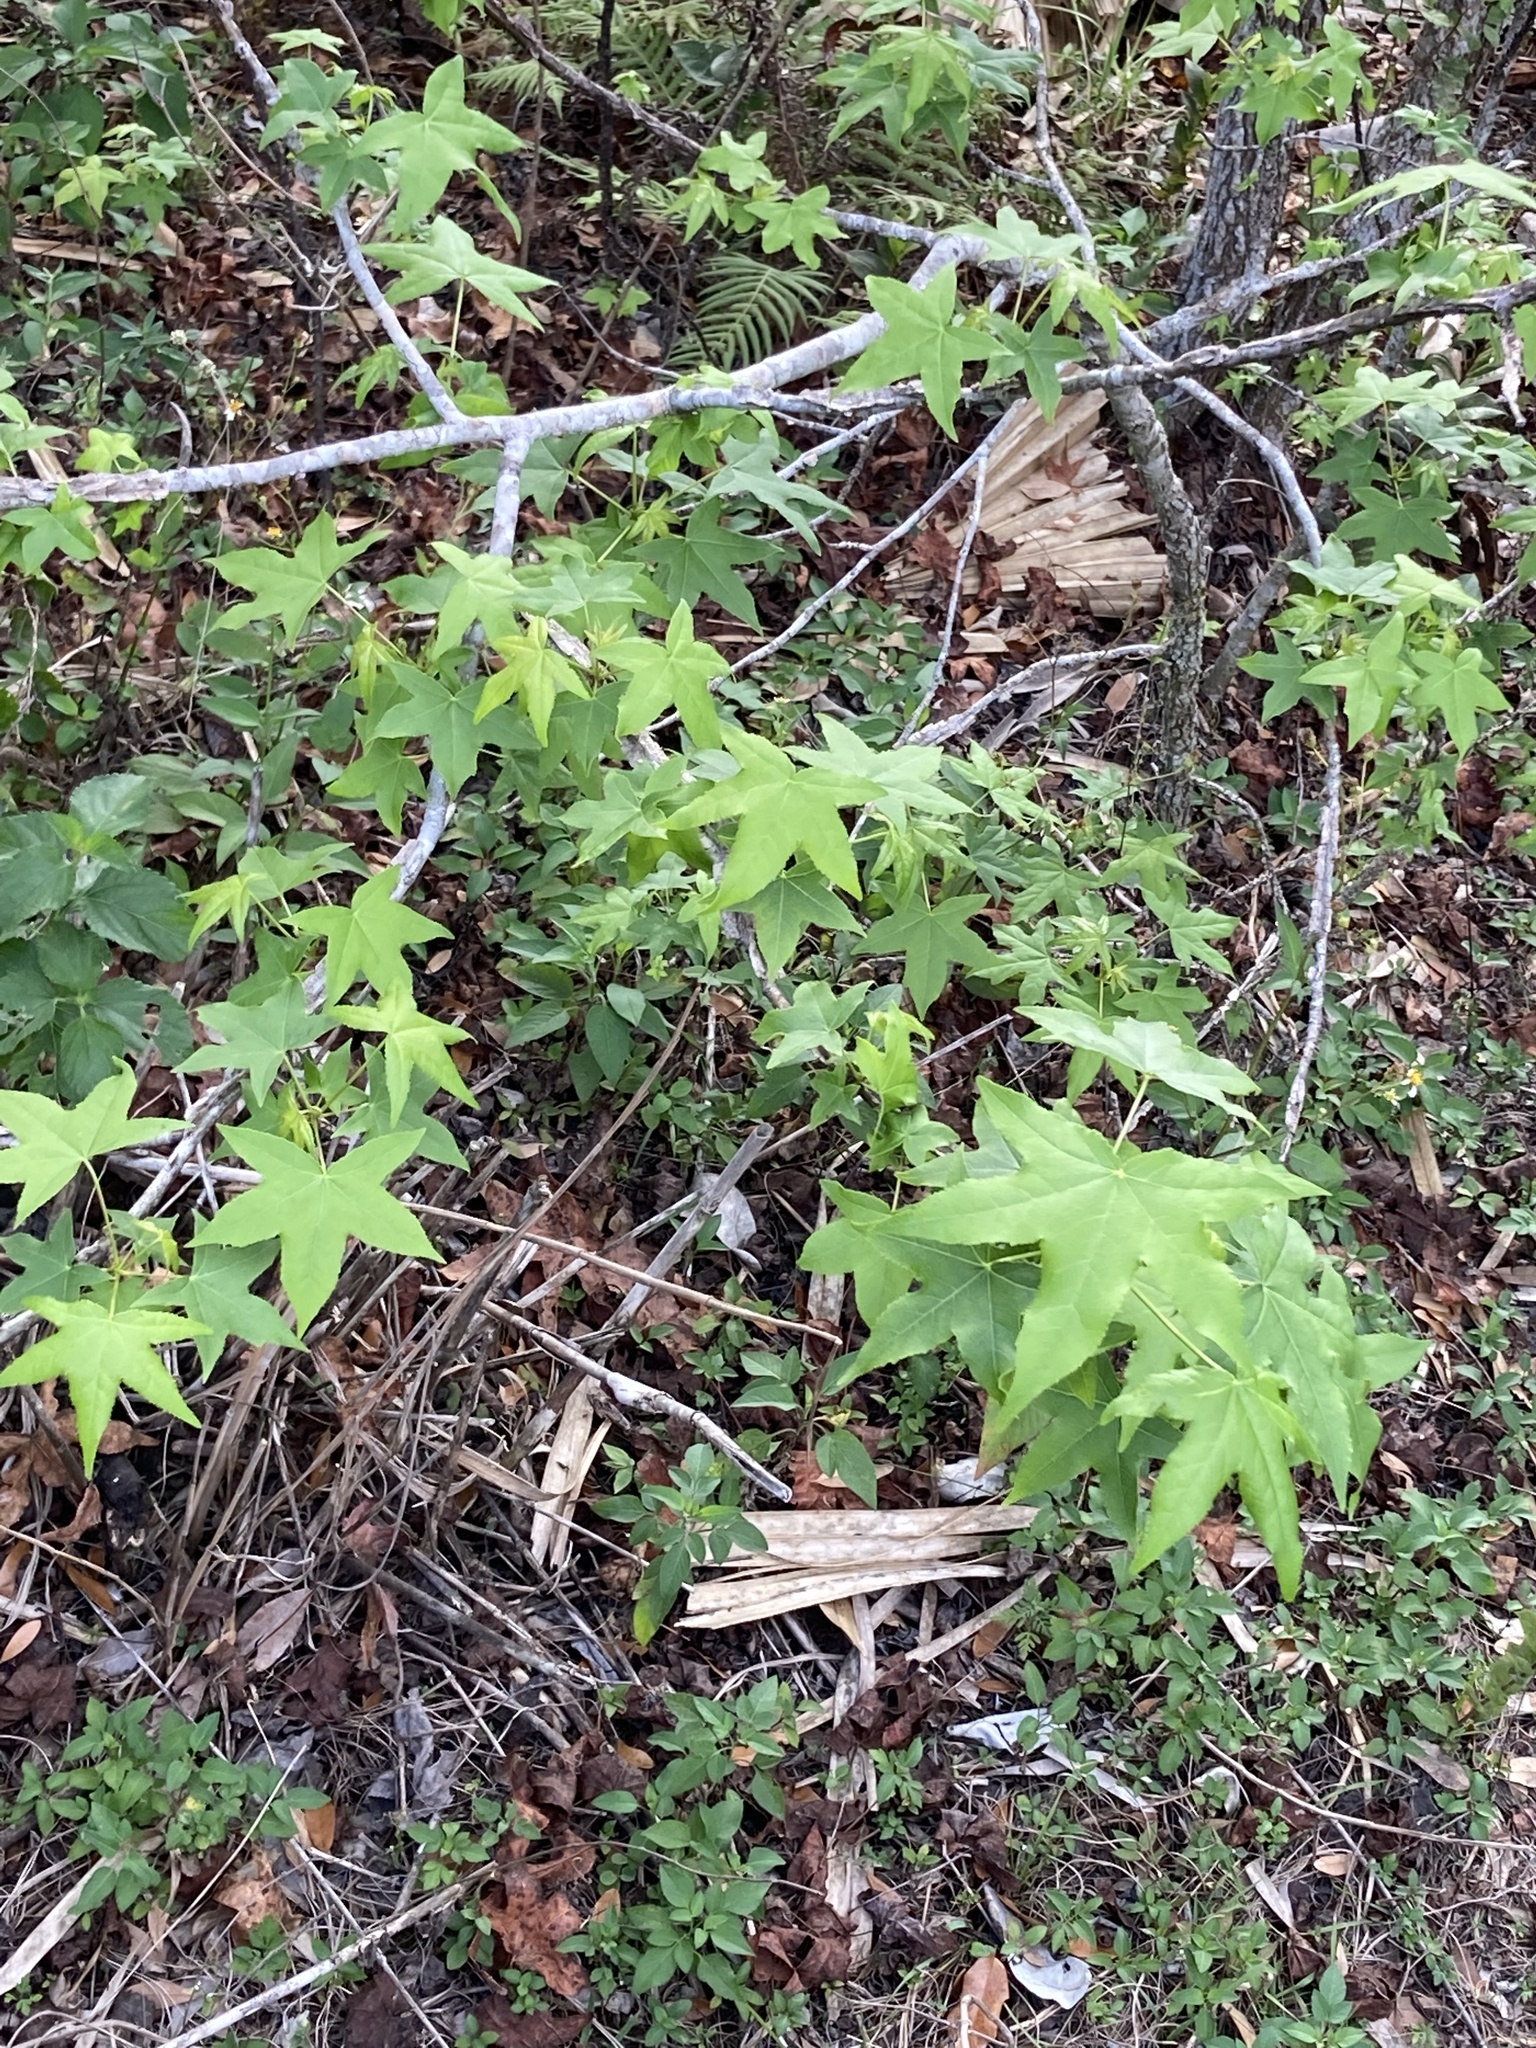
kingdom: Plantae
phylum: Tracheophyta
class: Magnoliopsida
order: Saxifragales
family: Altingiaceae
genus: Liquidambar
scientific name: Liquidambar styraciflua
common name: Sweet gum
